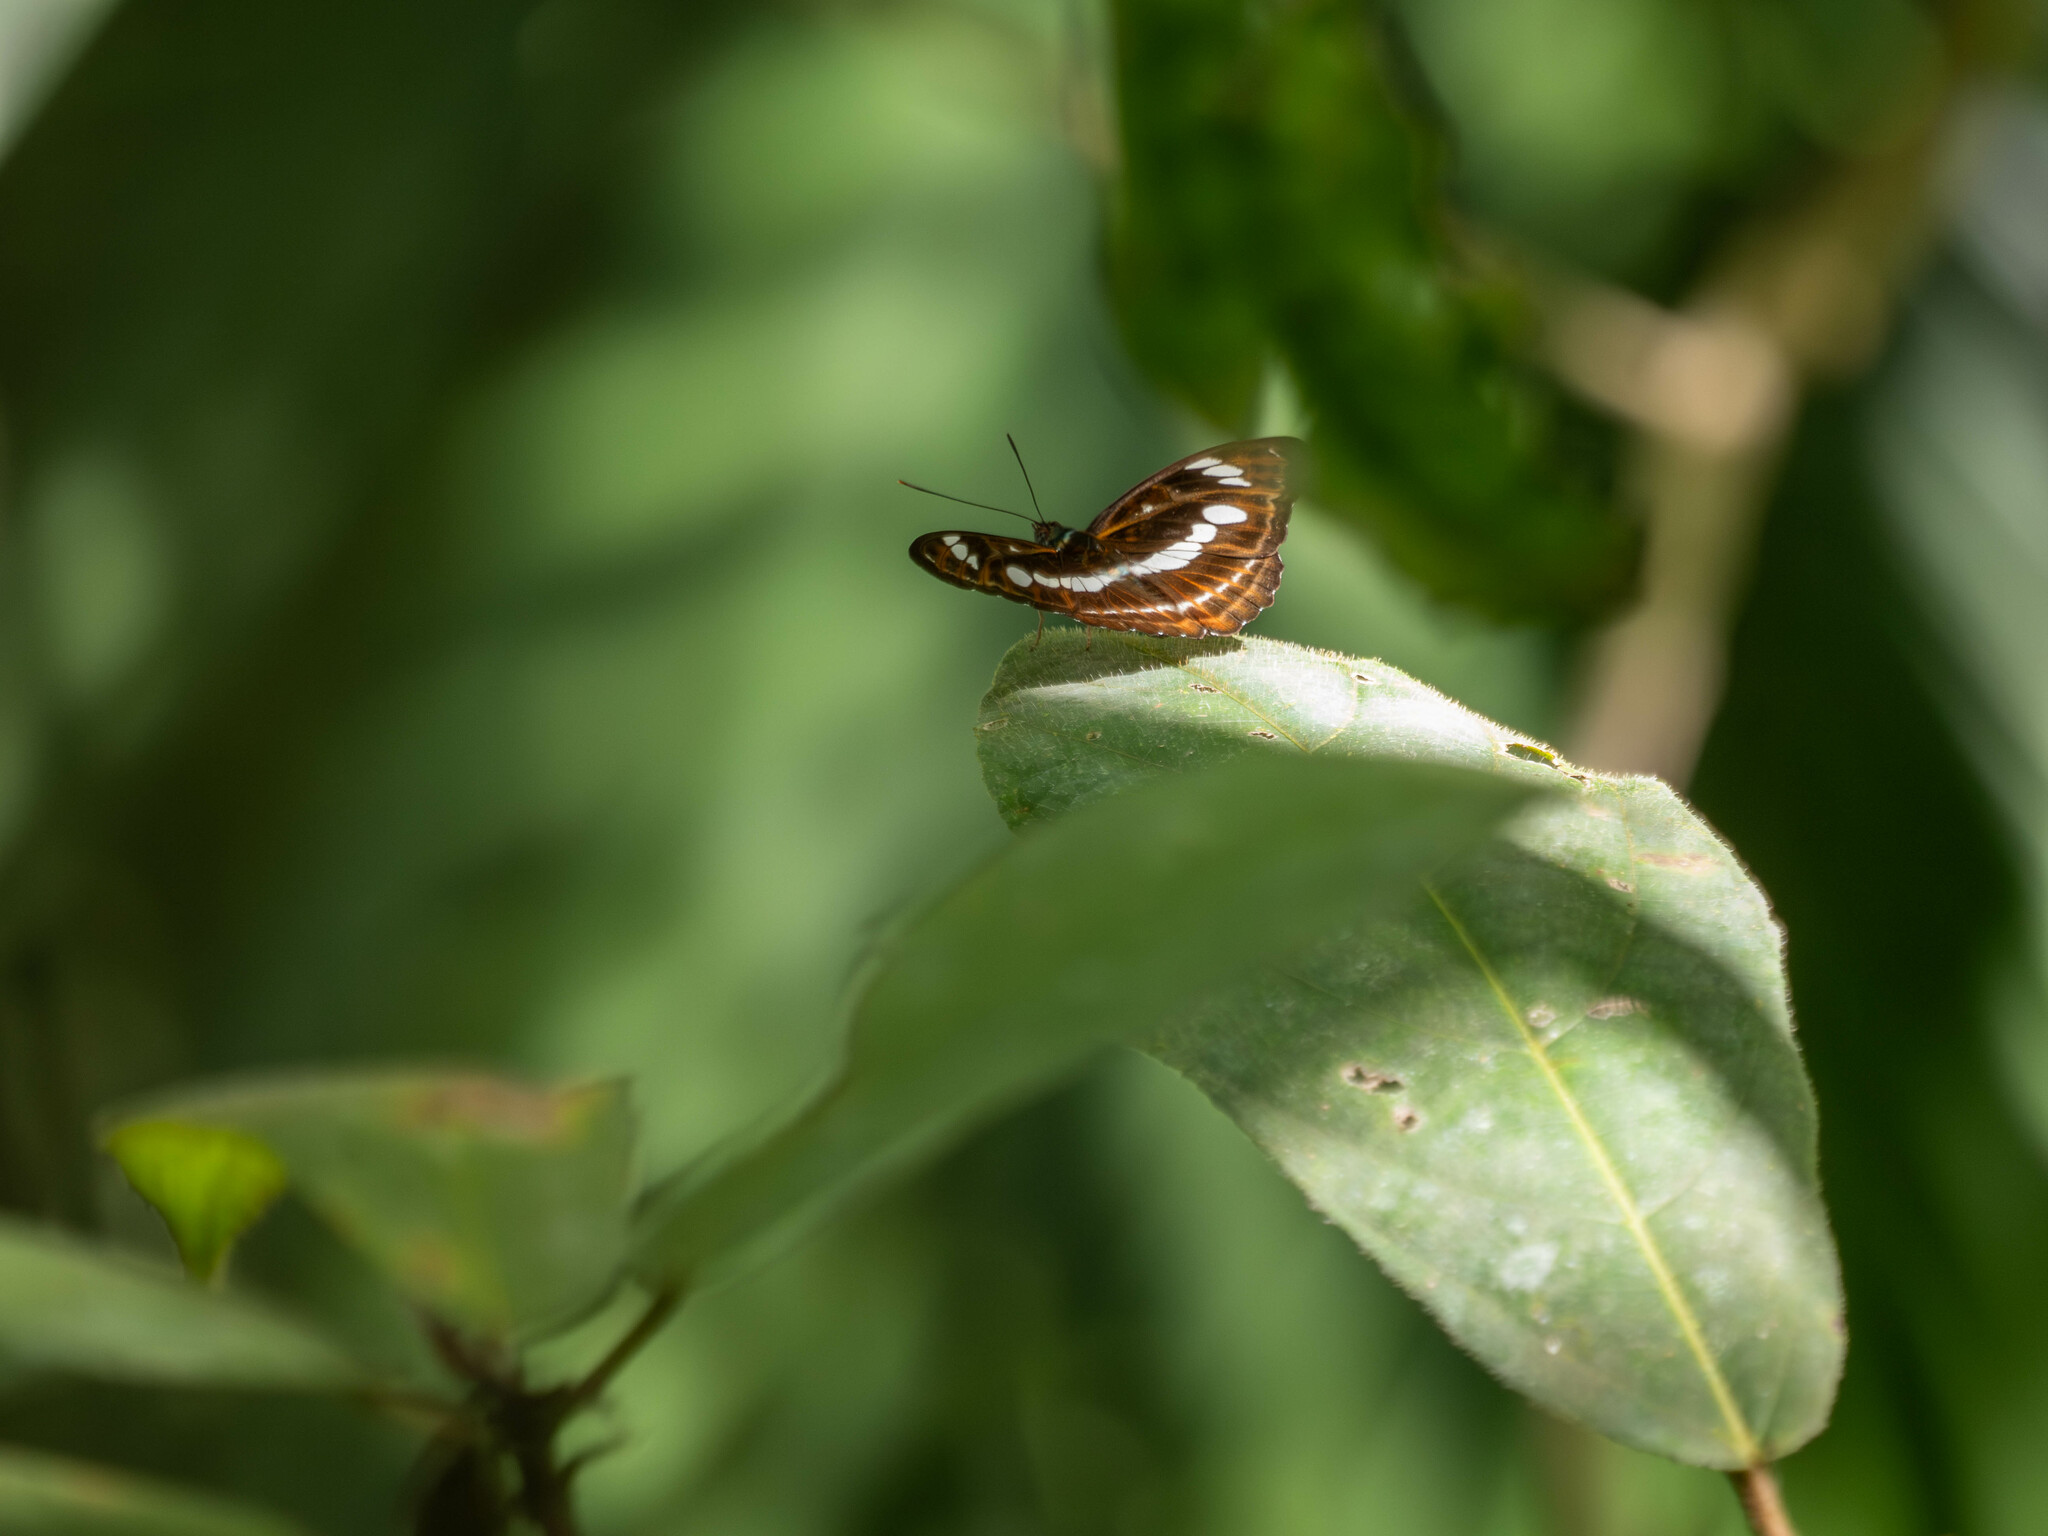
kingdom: Animalia
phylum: Arthropoda
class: Insecta
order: Lepidoptera
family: Nymphalidae
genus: Pantoporia
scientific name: Pantoporia venata
